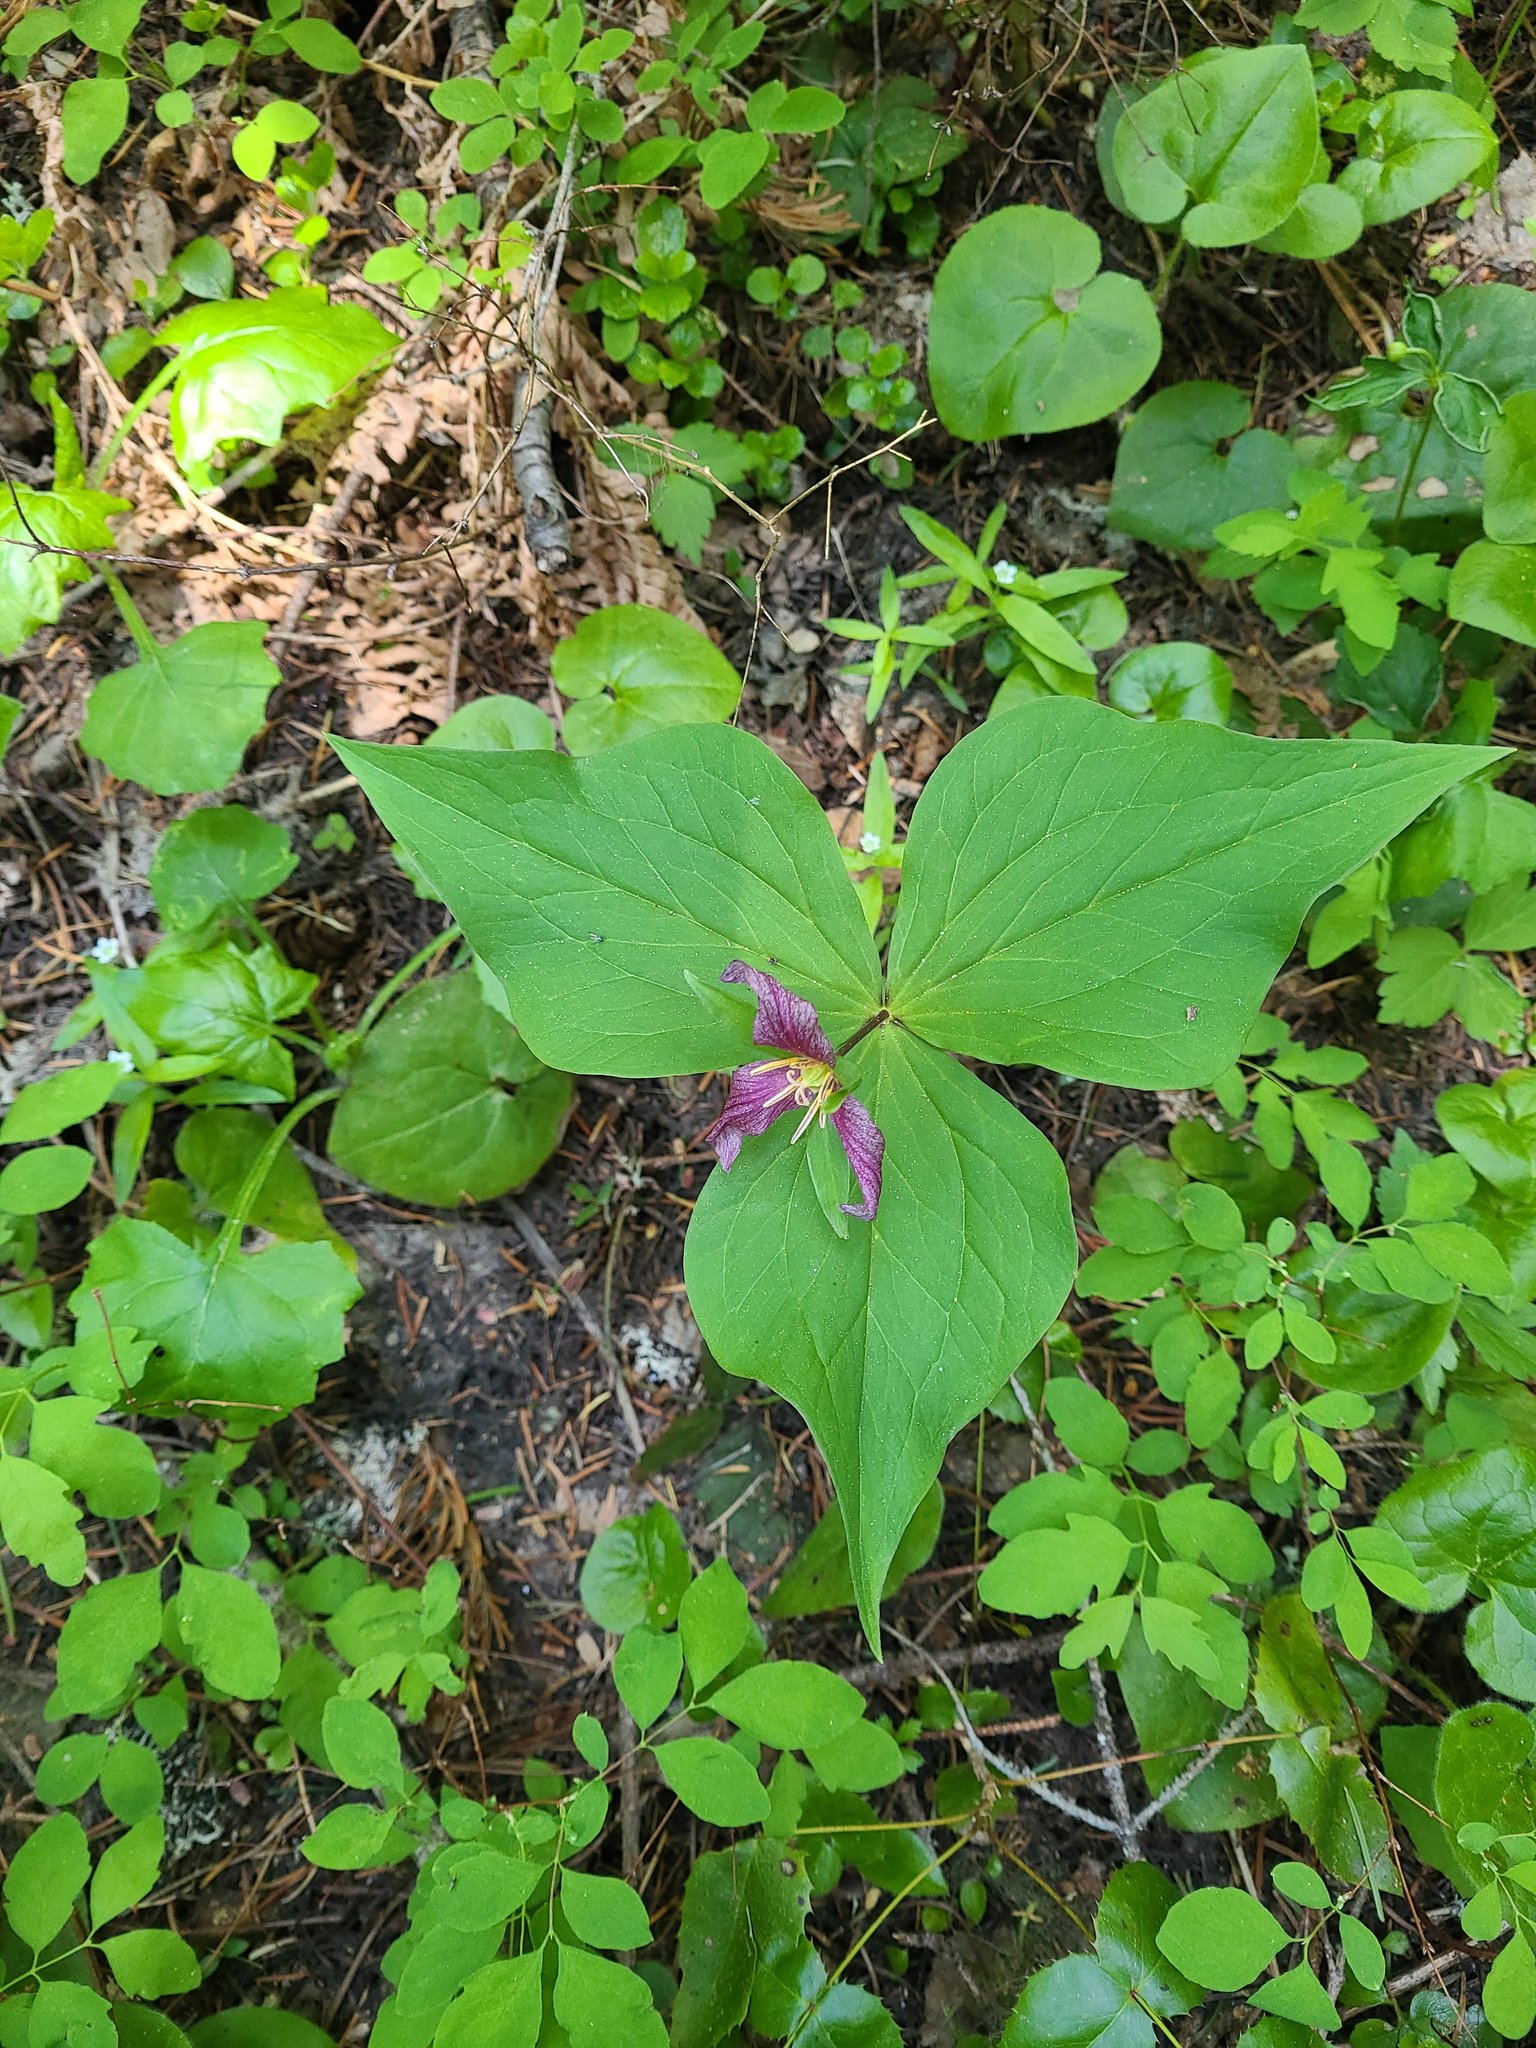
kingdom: Plantae
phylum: Tracheophyta
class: Liliopsida
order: Liliales
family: Melanthiaceae
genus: Trillium
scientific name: Trillium ovatum
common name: Pacific trillium
